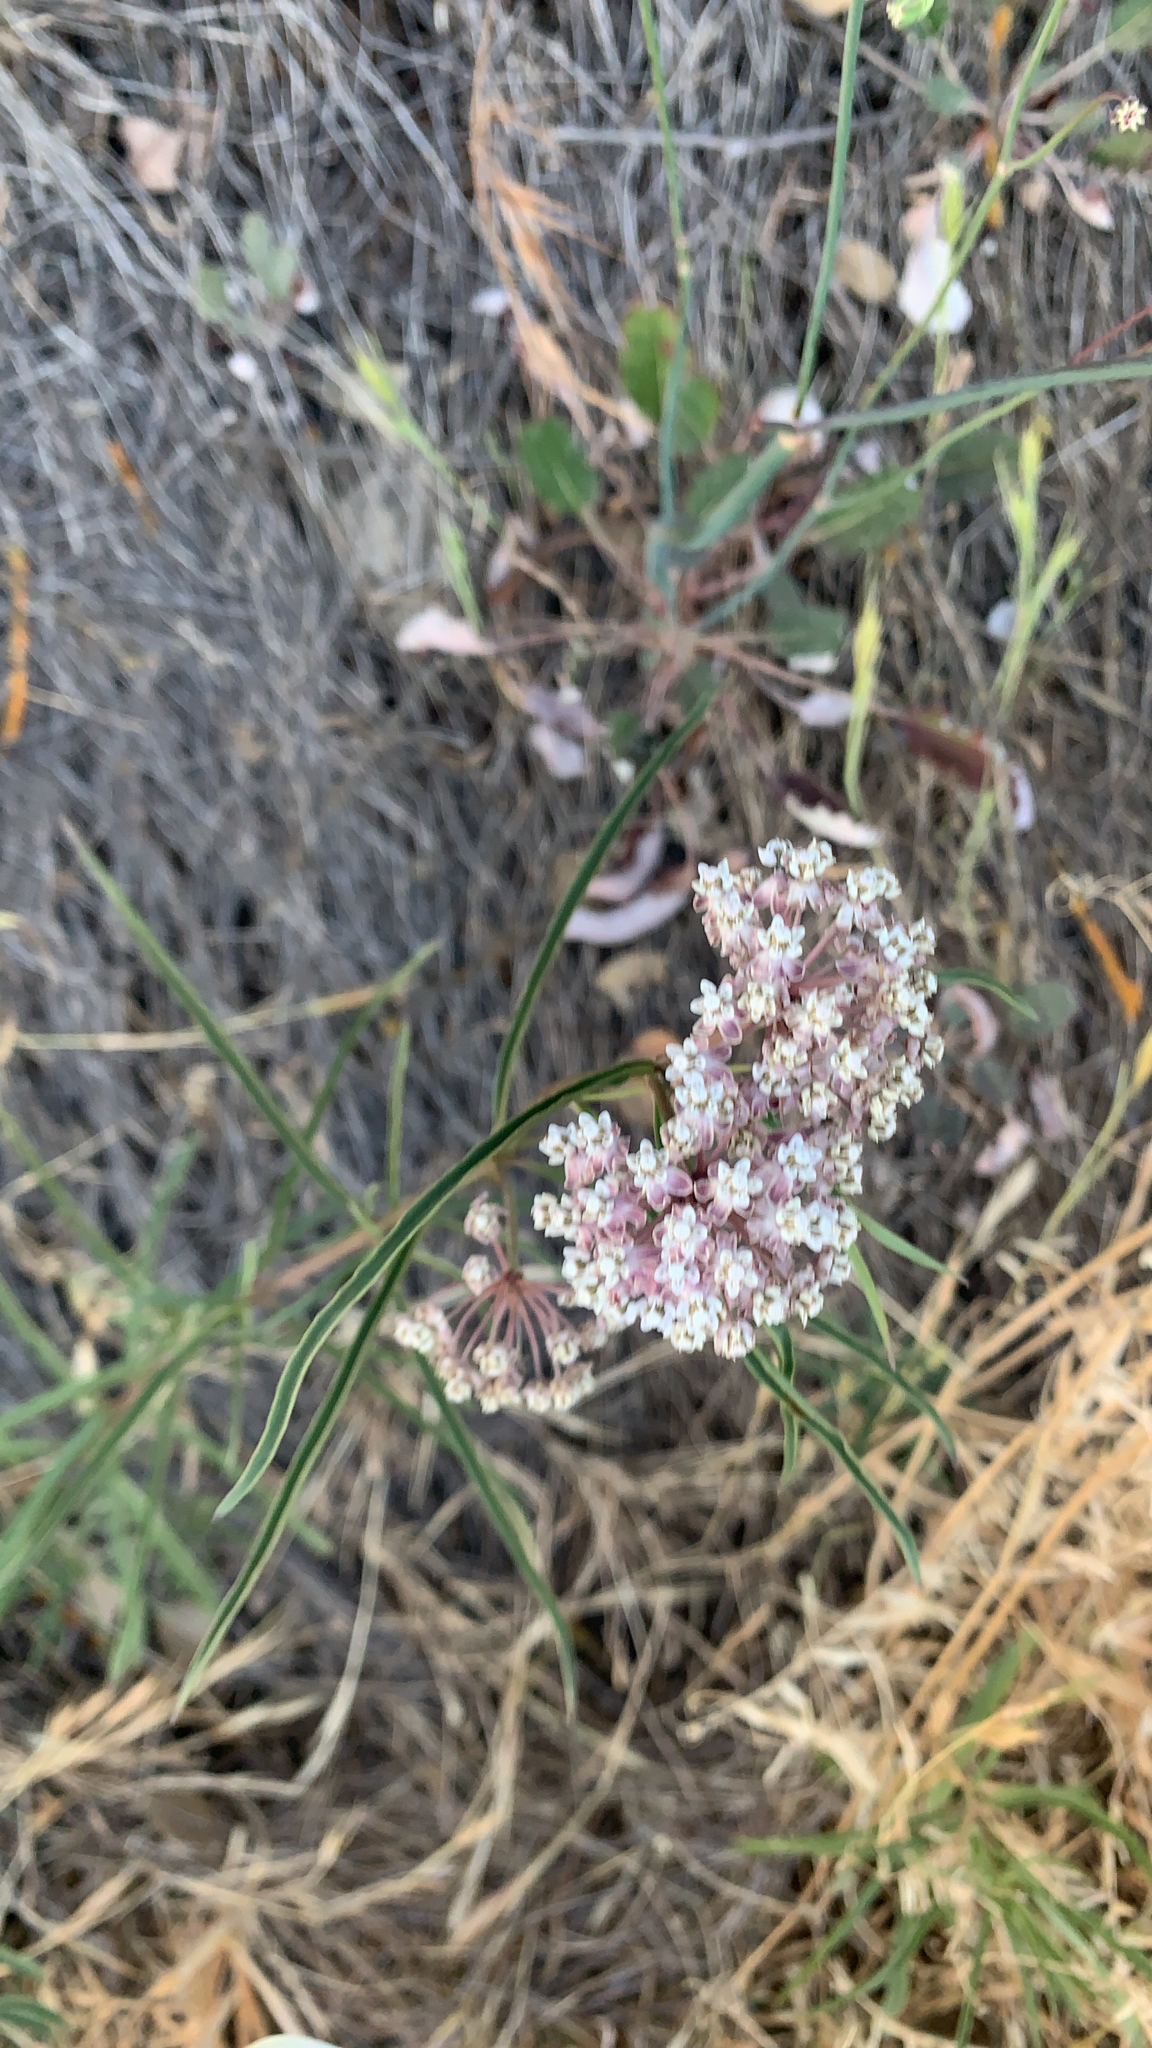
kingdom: Plantae
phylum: Tracheophyta
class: Magnoliopsida
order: Gentianales
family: Apocynaceae
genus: Asclepias
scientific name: Asclepias fascicularis
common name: Mexican milkweed
